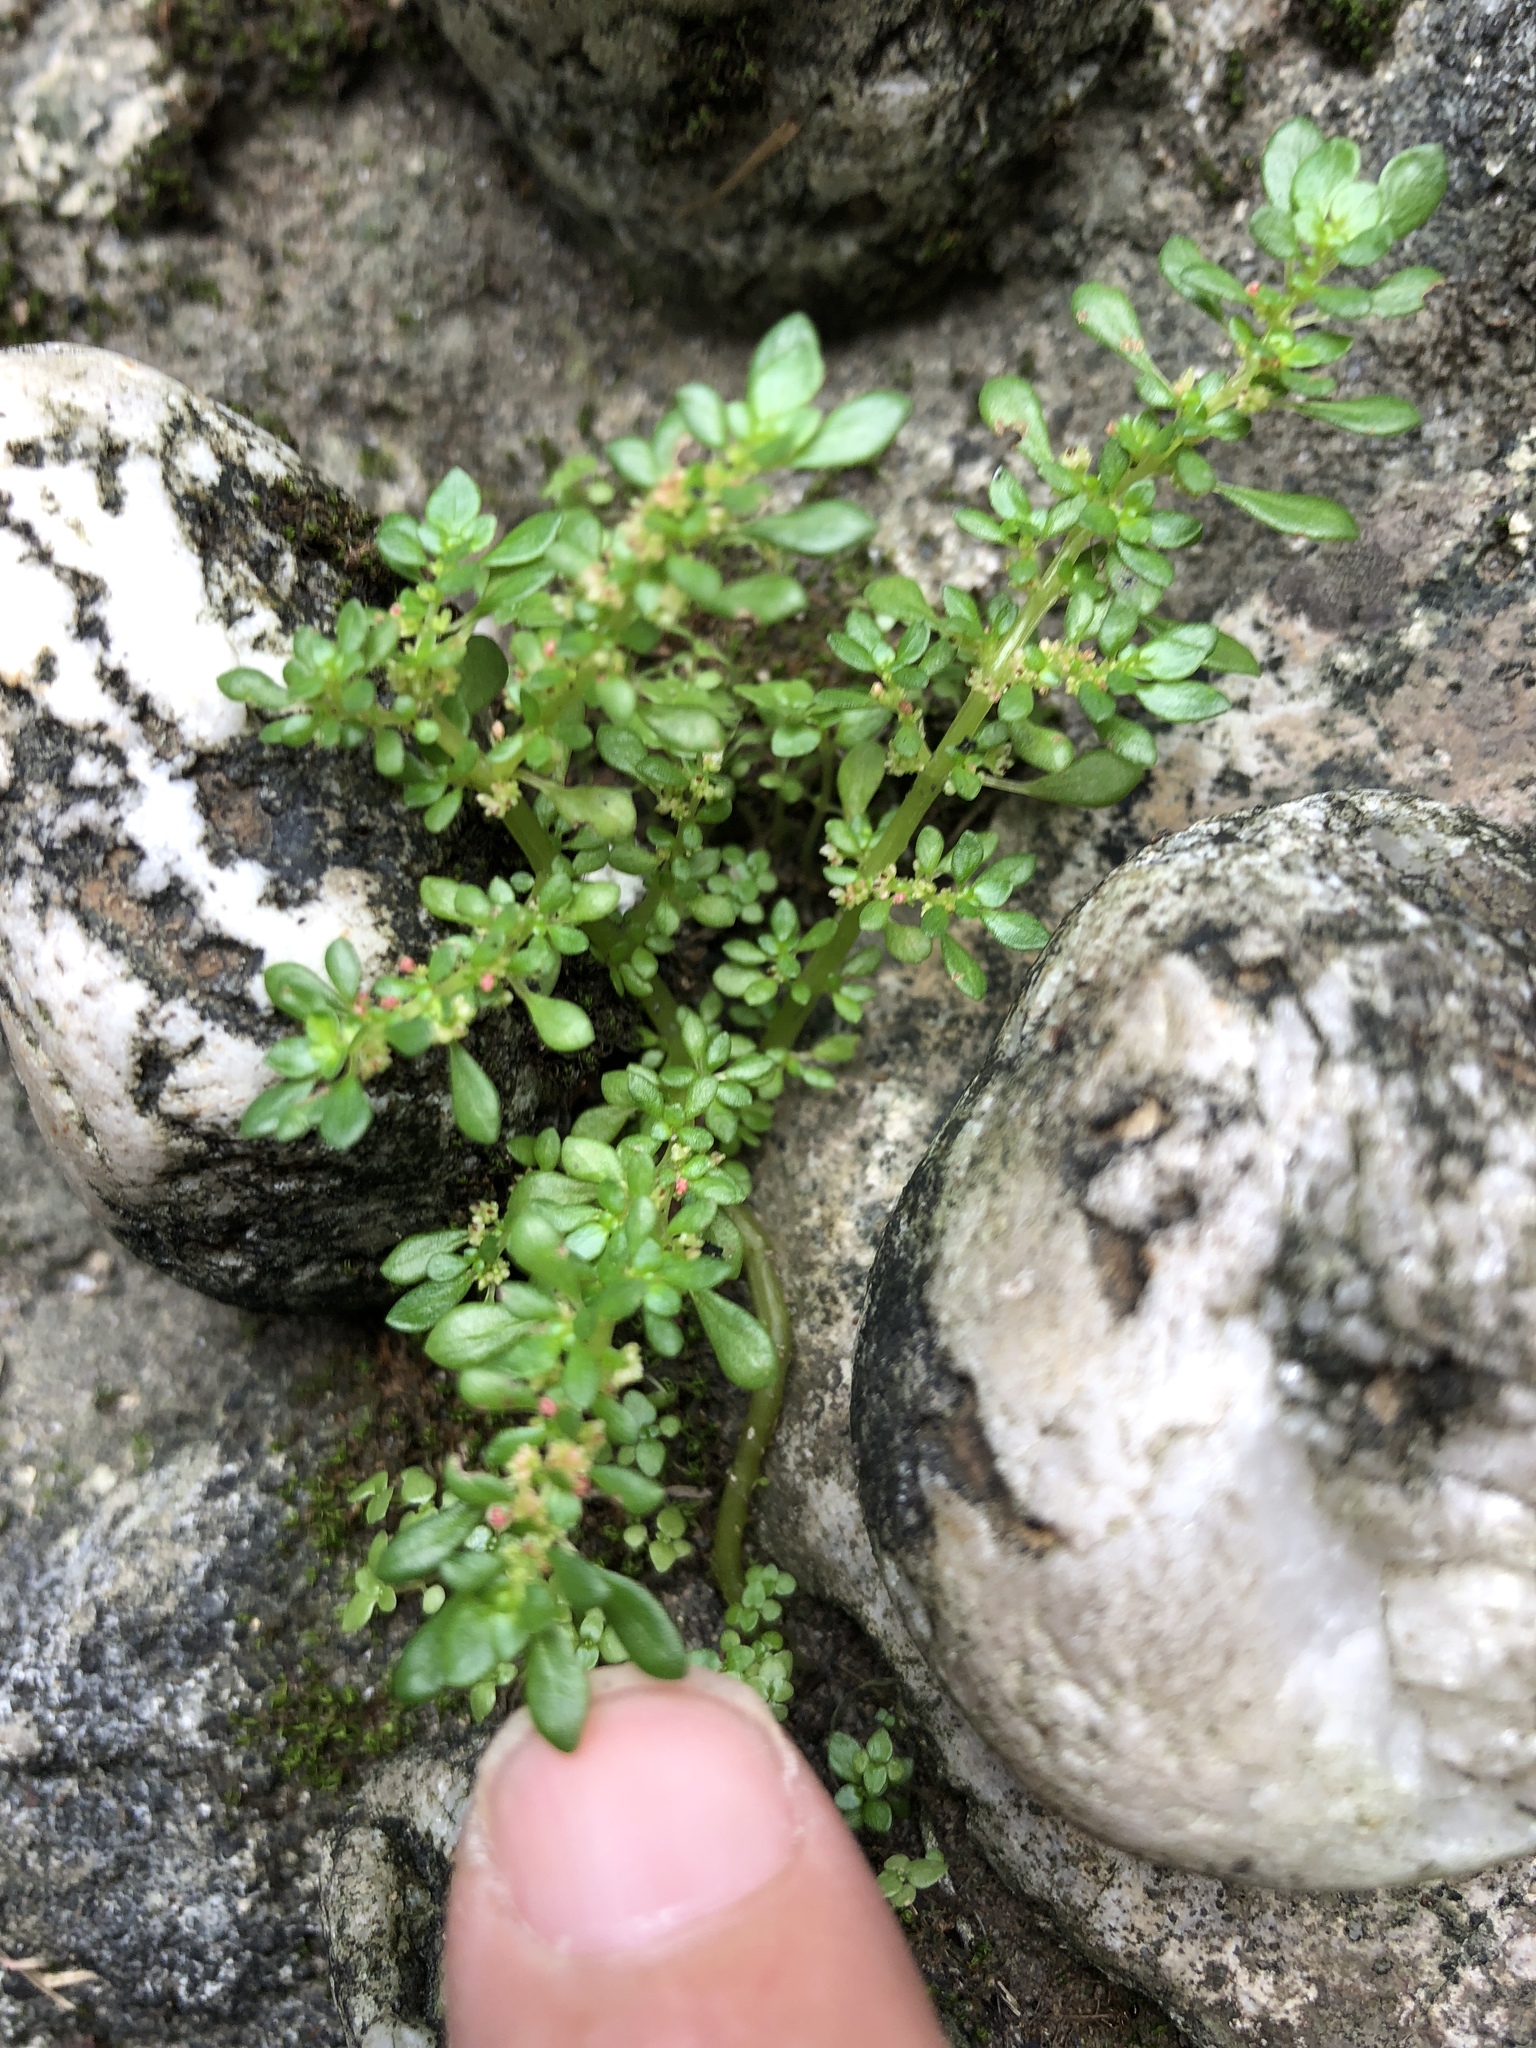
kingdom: Plantae
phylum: Tracheophyta
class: Magnoliopsida
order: Rosales
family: Urticaceae
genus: Pilea
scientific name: Pilea microphylla
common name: Artillery-plant
